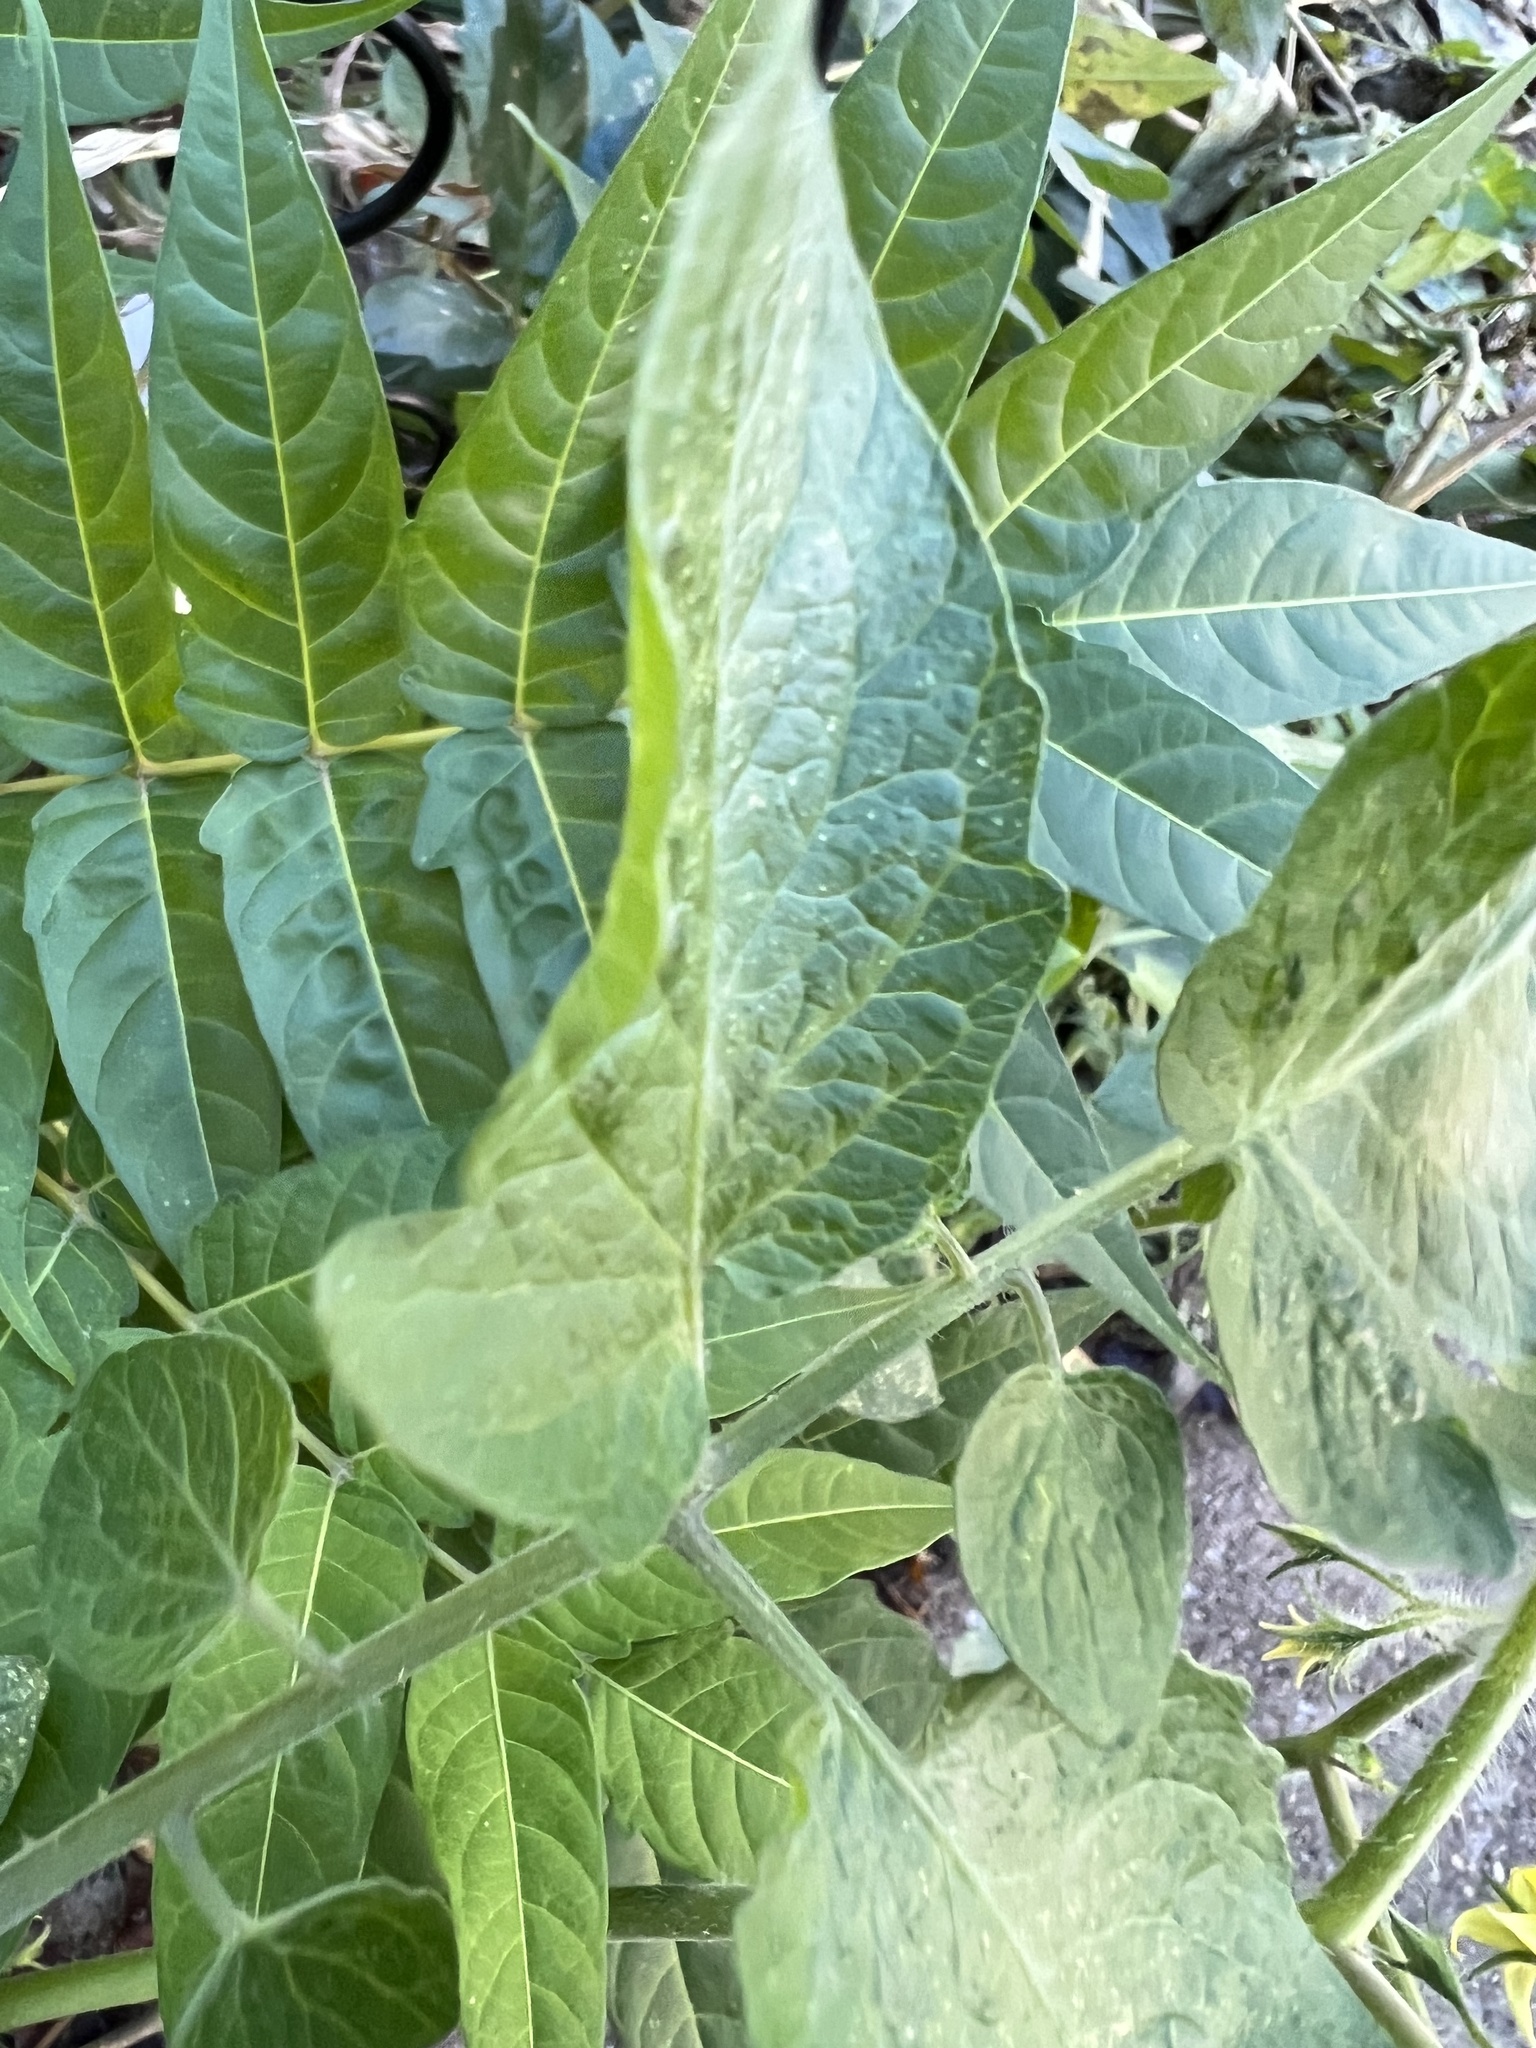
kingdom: Plantae
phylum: Tracheophyta
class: Magnoliopsida
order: Solanales
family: Solanaceae
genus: Solanum
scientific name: Solanum lycopersicum
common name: Garden tomato
